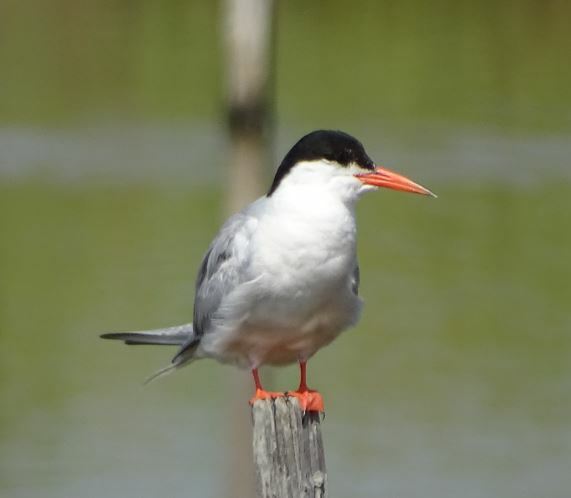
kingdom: Animalia
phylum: Chordata
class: Aves
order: Charadriiformes
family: Laridae
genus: Sterna
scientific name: Sterna hirundo
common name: Common tern
